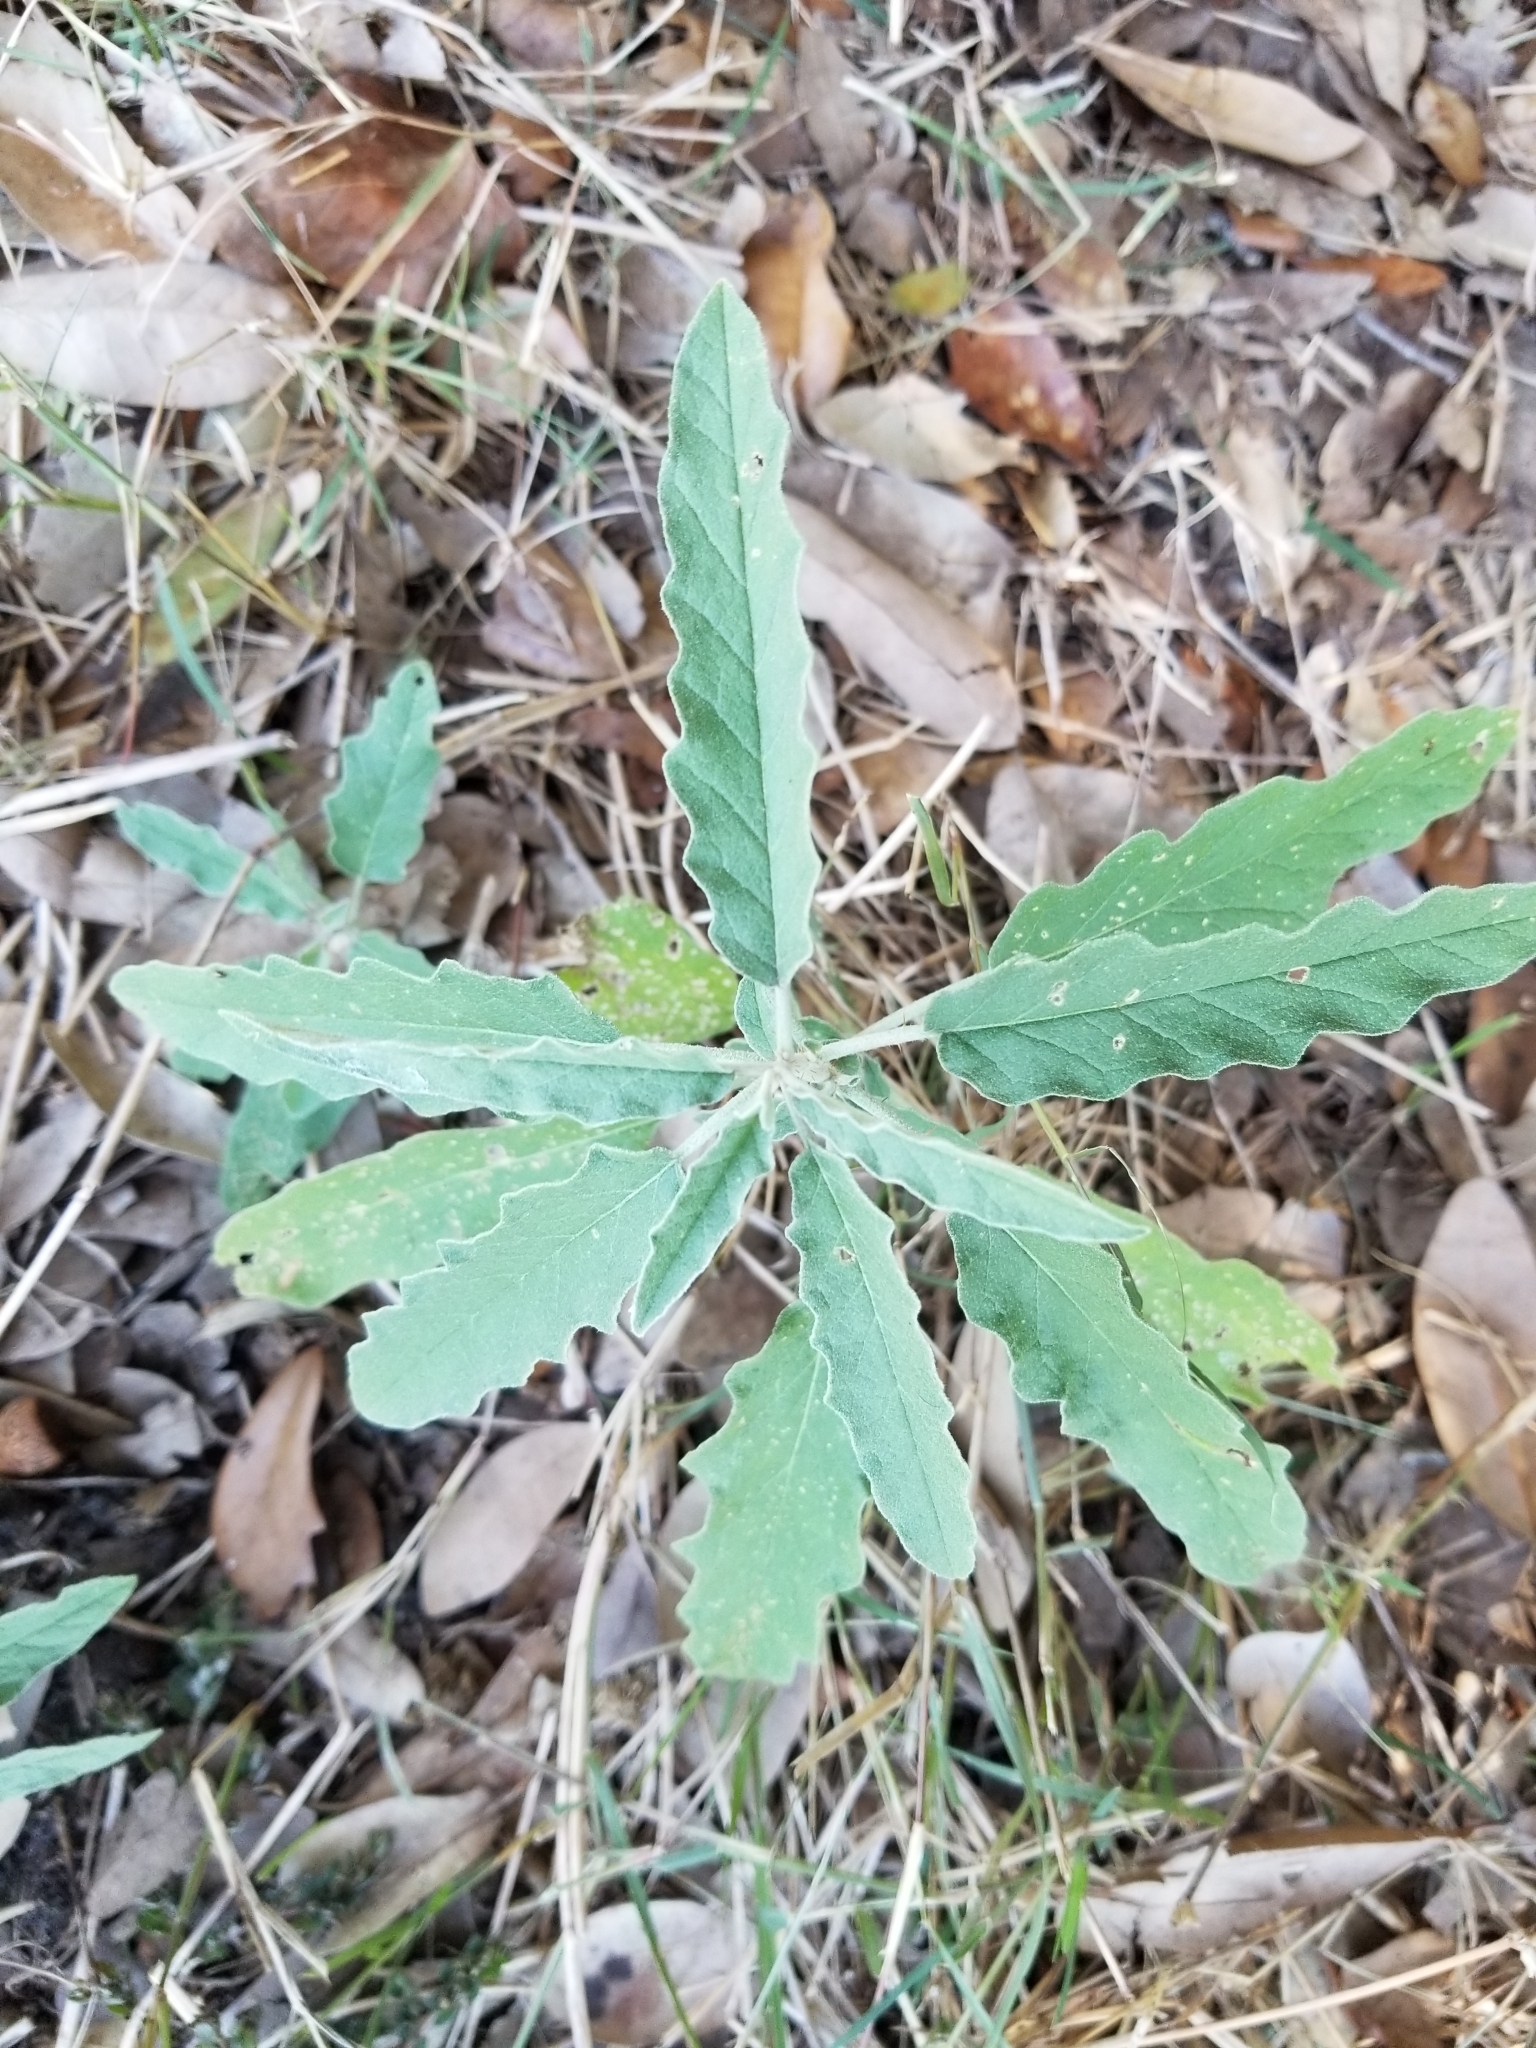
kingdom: Plantae
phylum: Tracheophyta
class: Magnoliopsida
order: Solanales
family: Solanaceae
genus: Solanum
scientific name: Solanum elaeagnifolium
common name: Silverleaf nightshade
